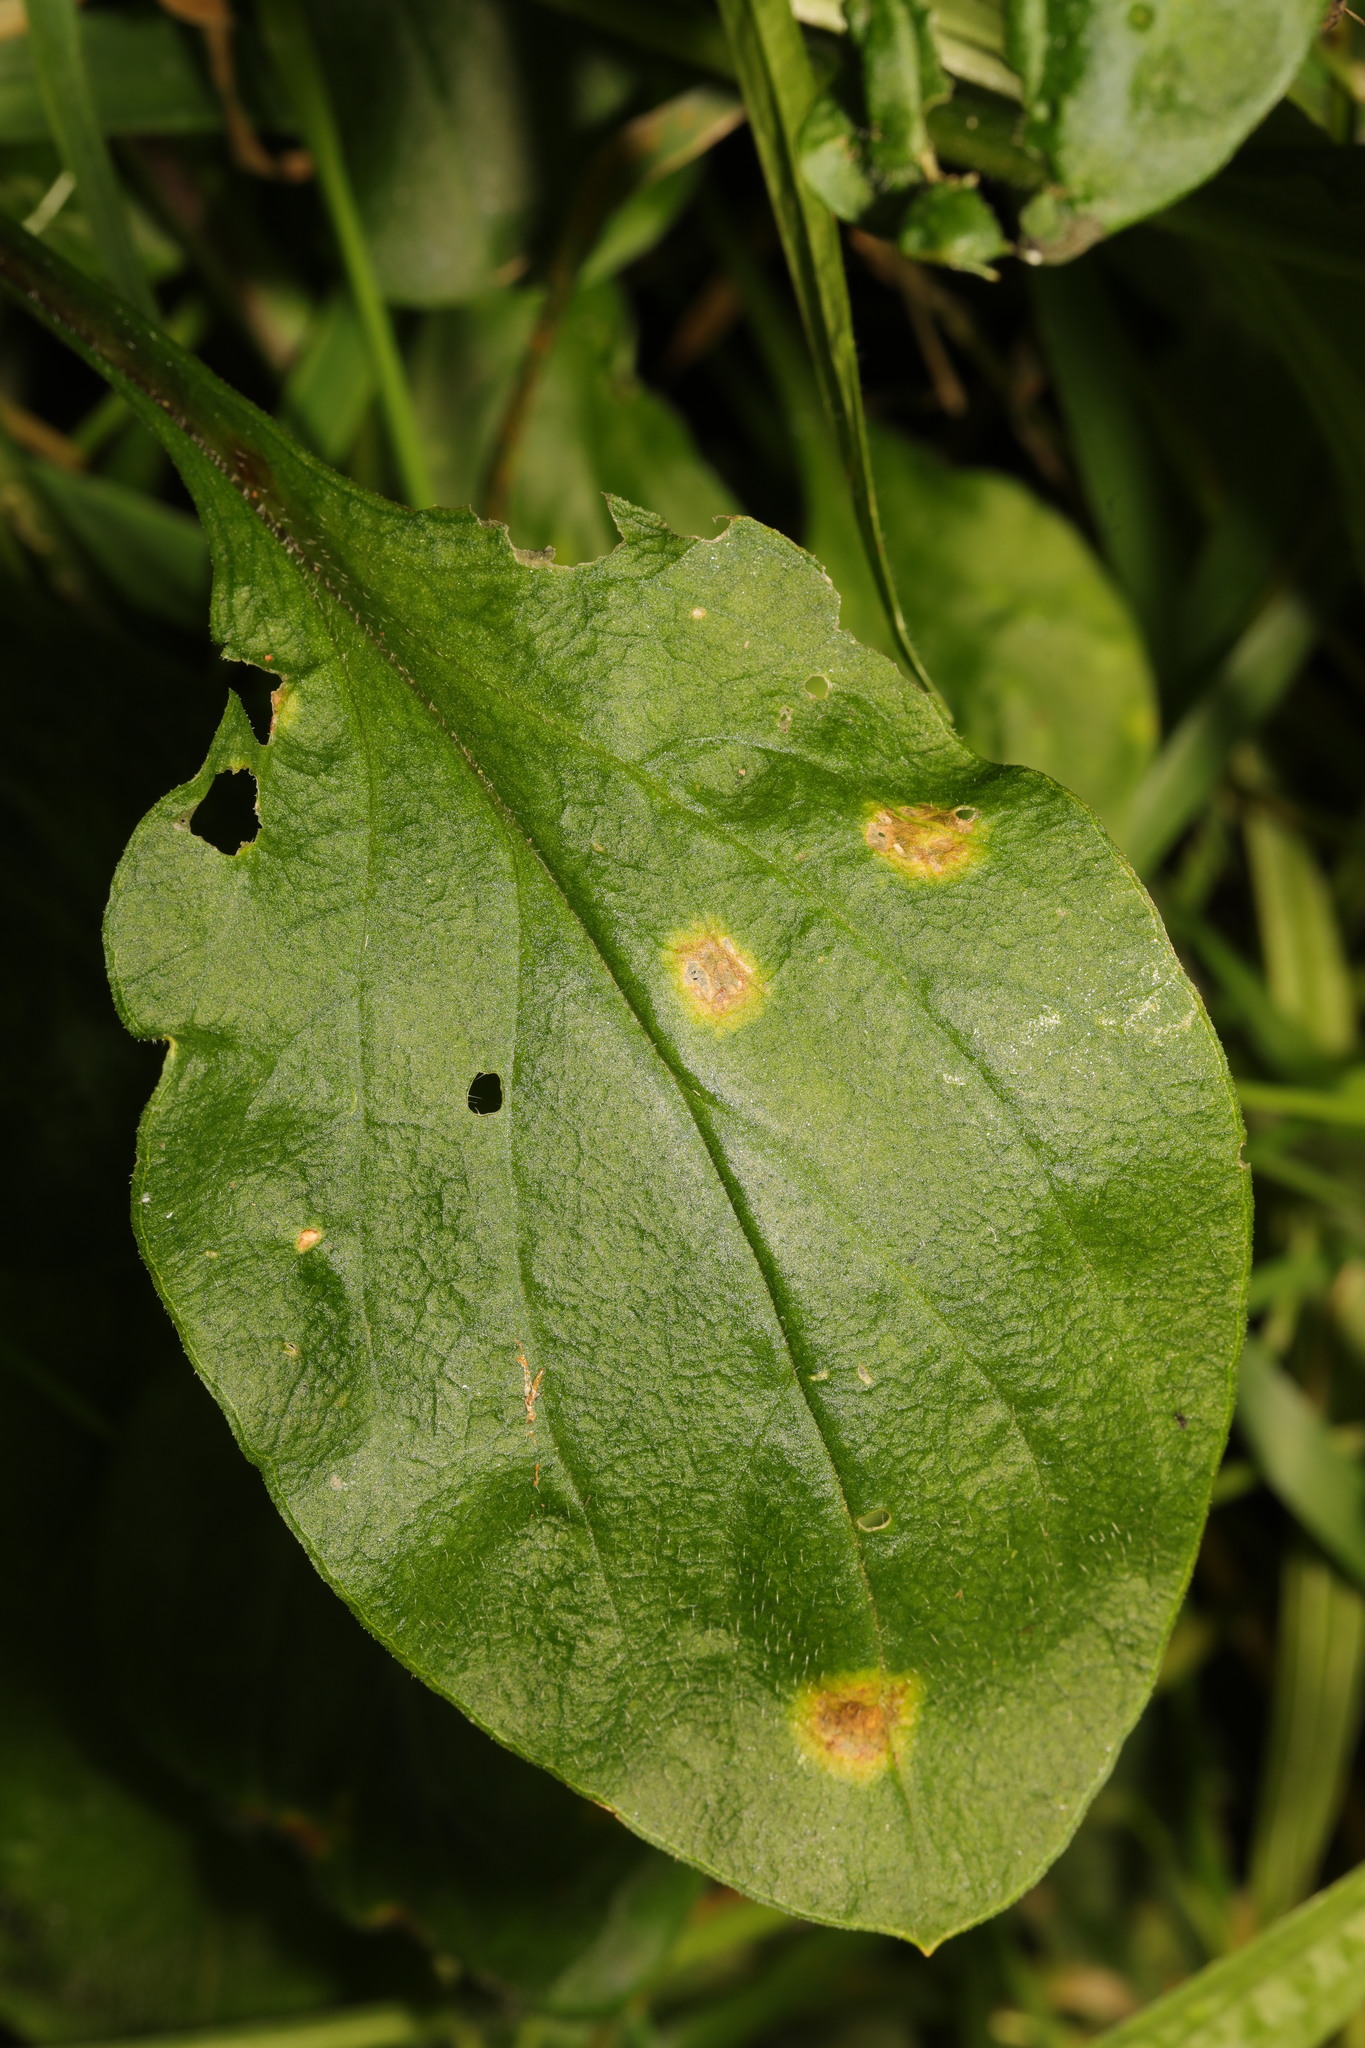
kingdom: Fungi
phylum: Basidiomycota
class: Pucciniomycetes
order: Pucciniales
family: Pucciniaceae
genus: Puccinia
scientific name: Puccinia arenariae
